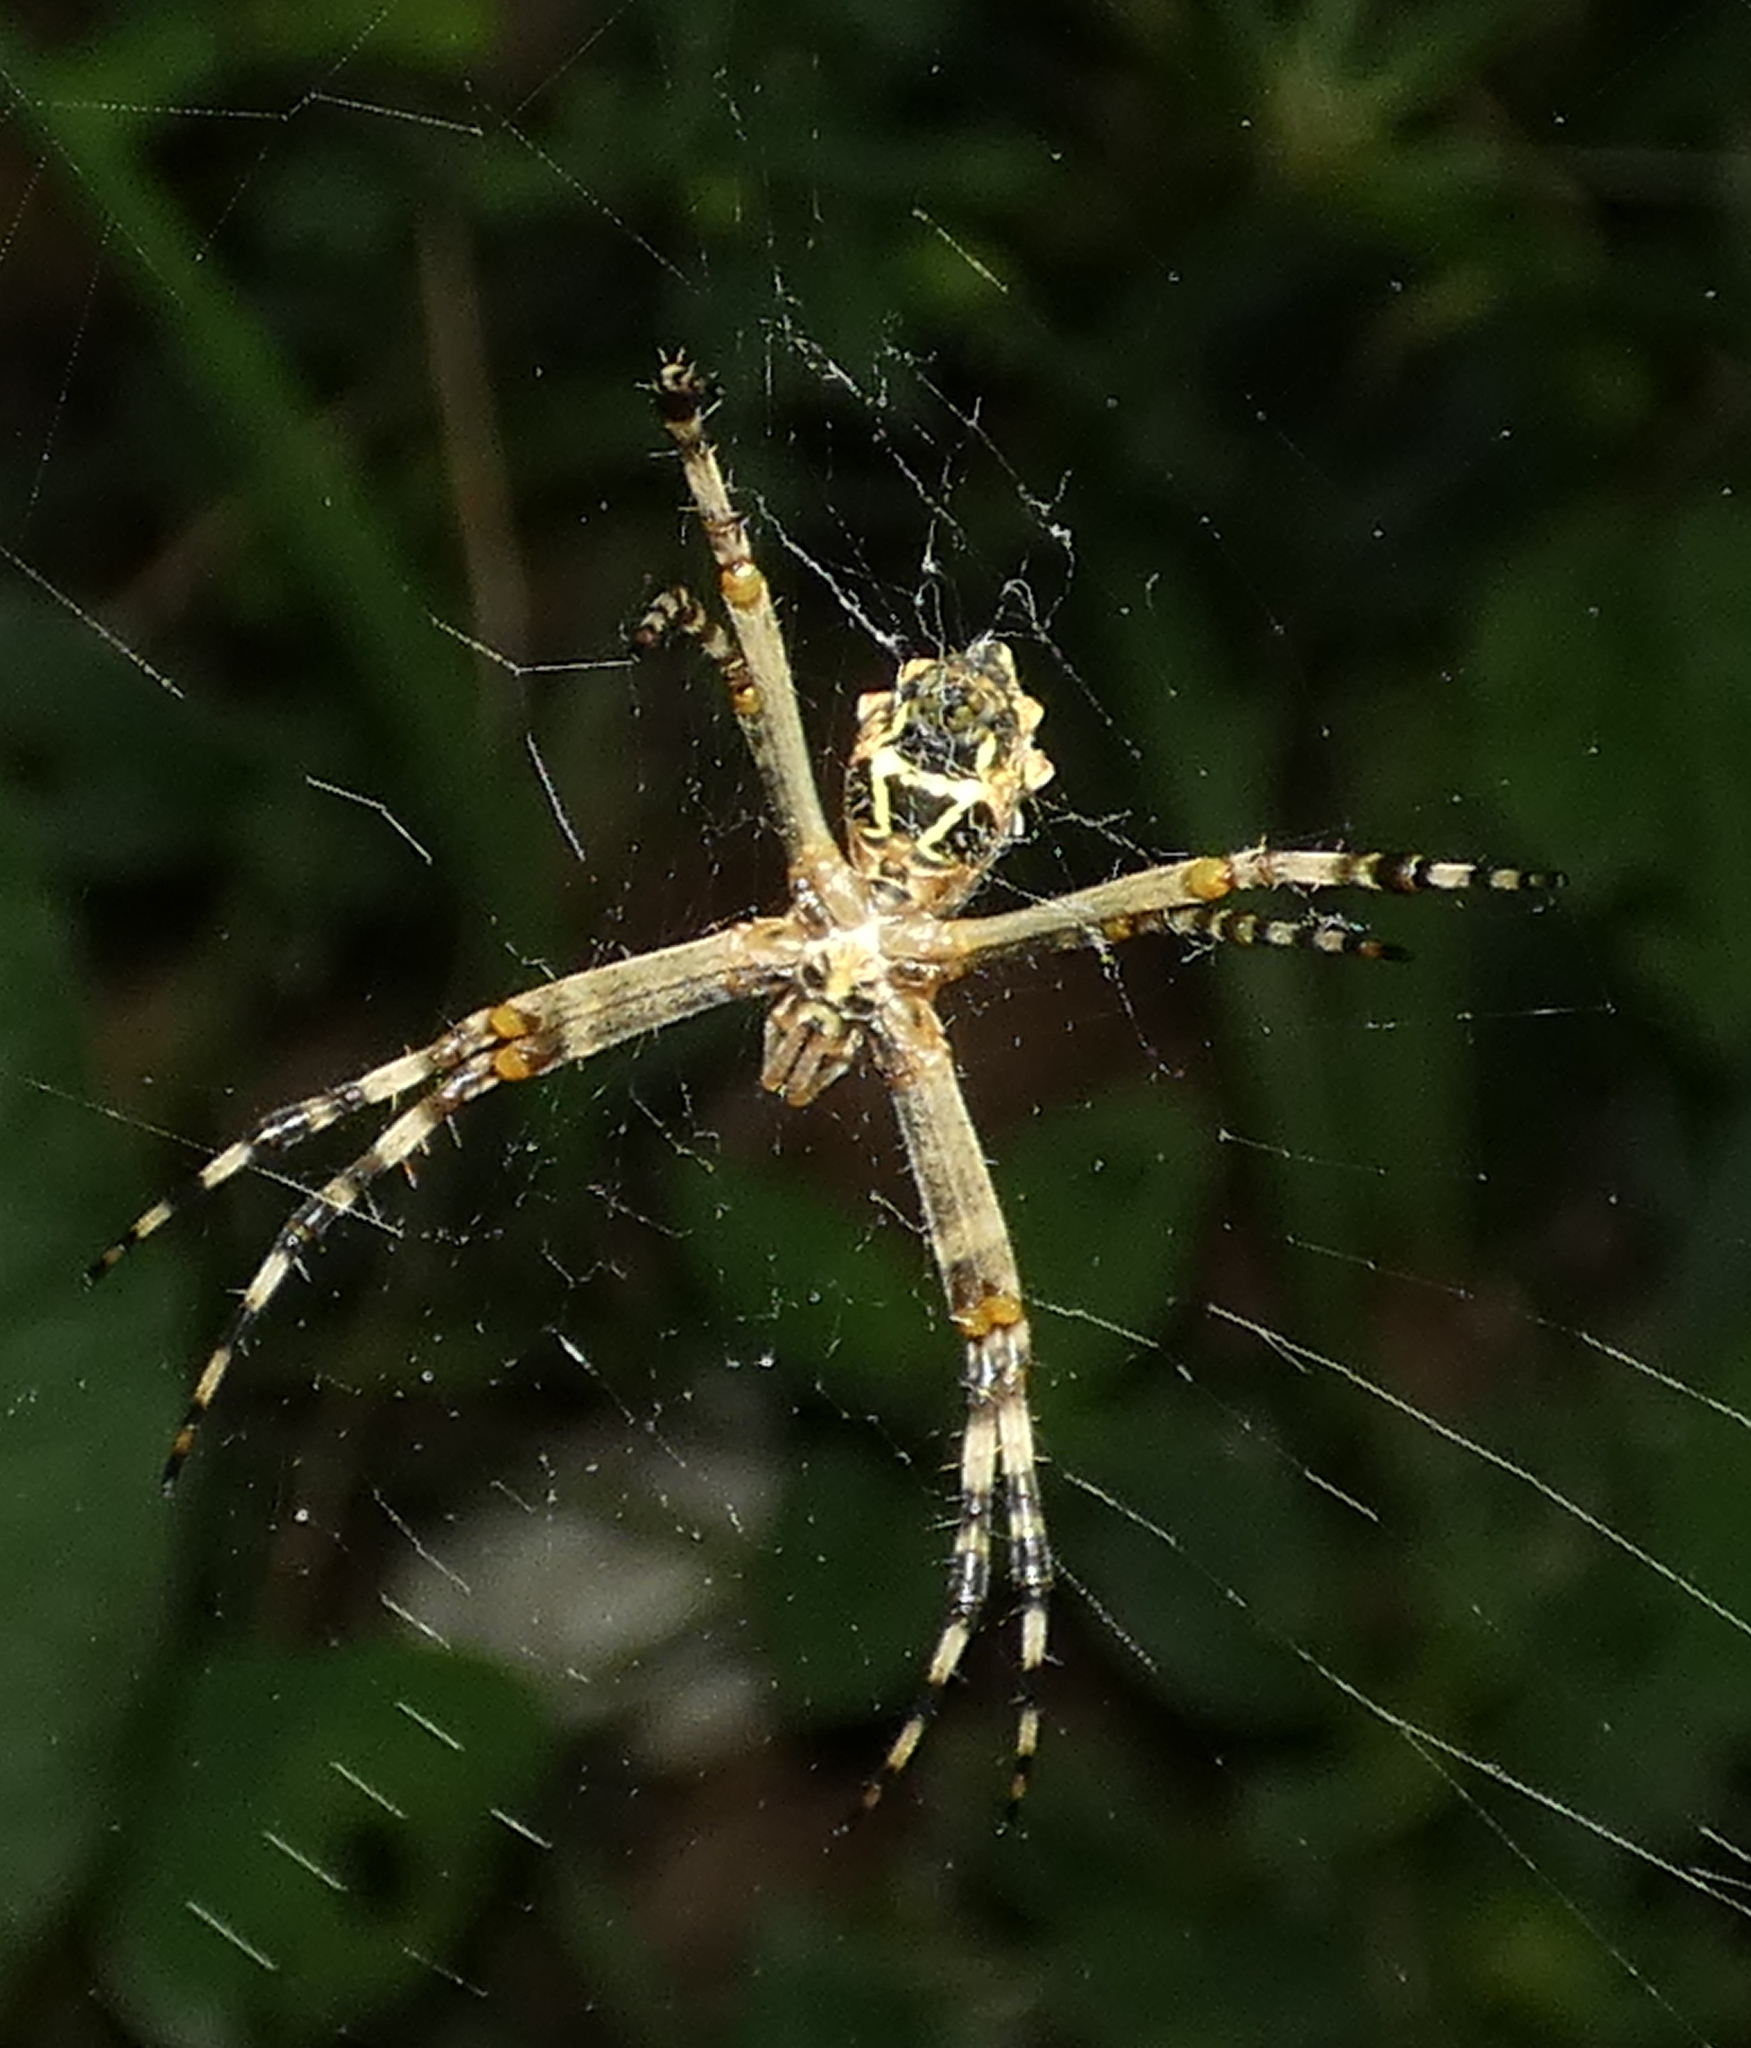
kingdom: Animalia
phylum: Arthropoda
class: Arachnida
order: Araneae
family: Araneidae
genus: Argiope
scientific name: Argiope argentata
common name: Orb weavers
